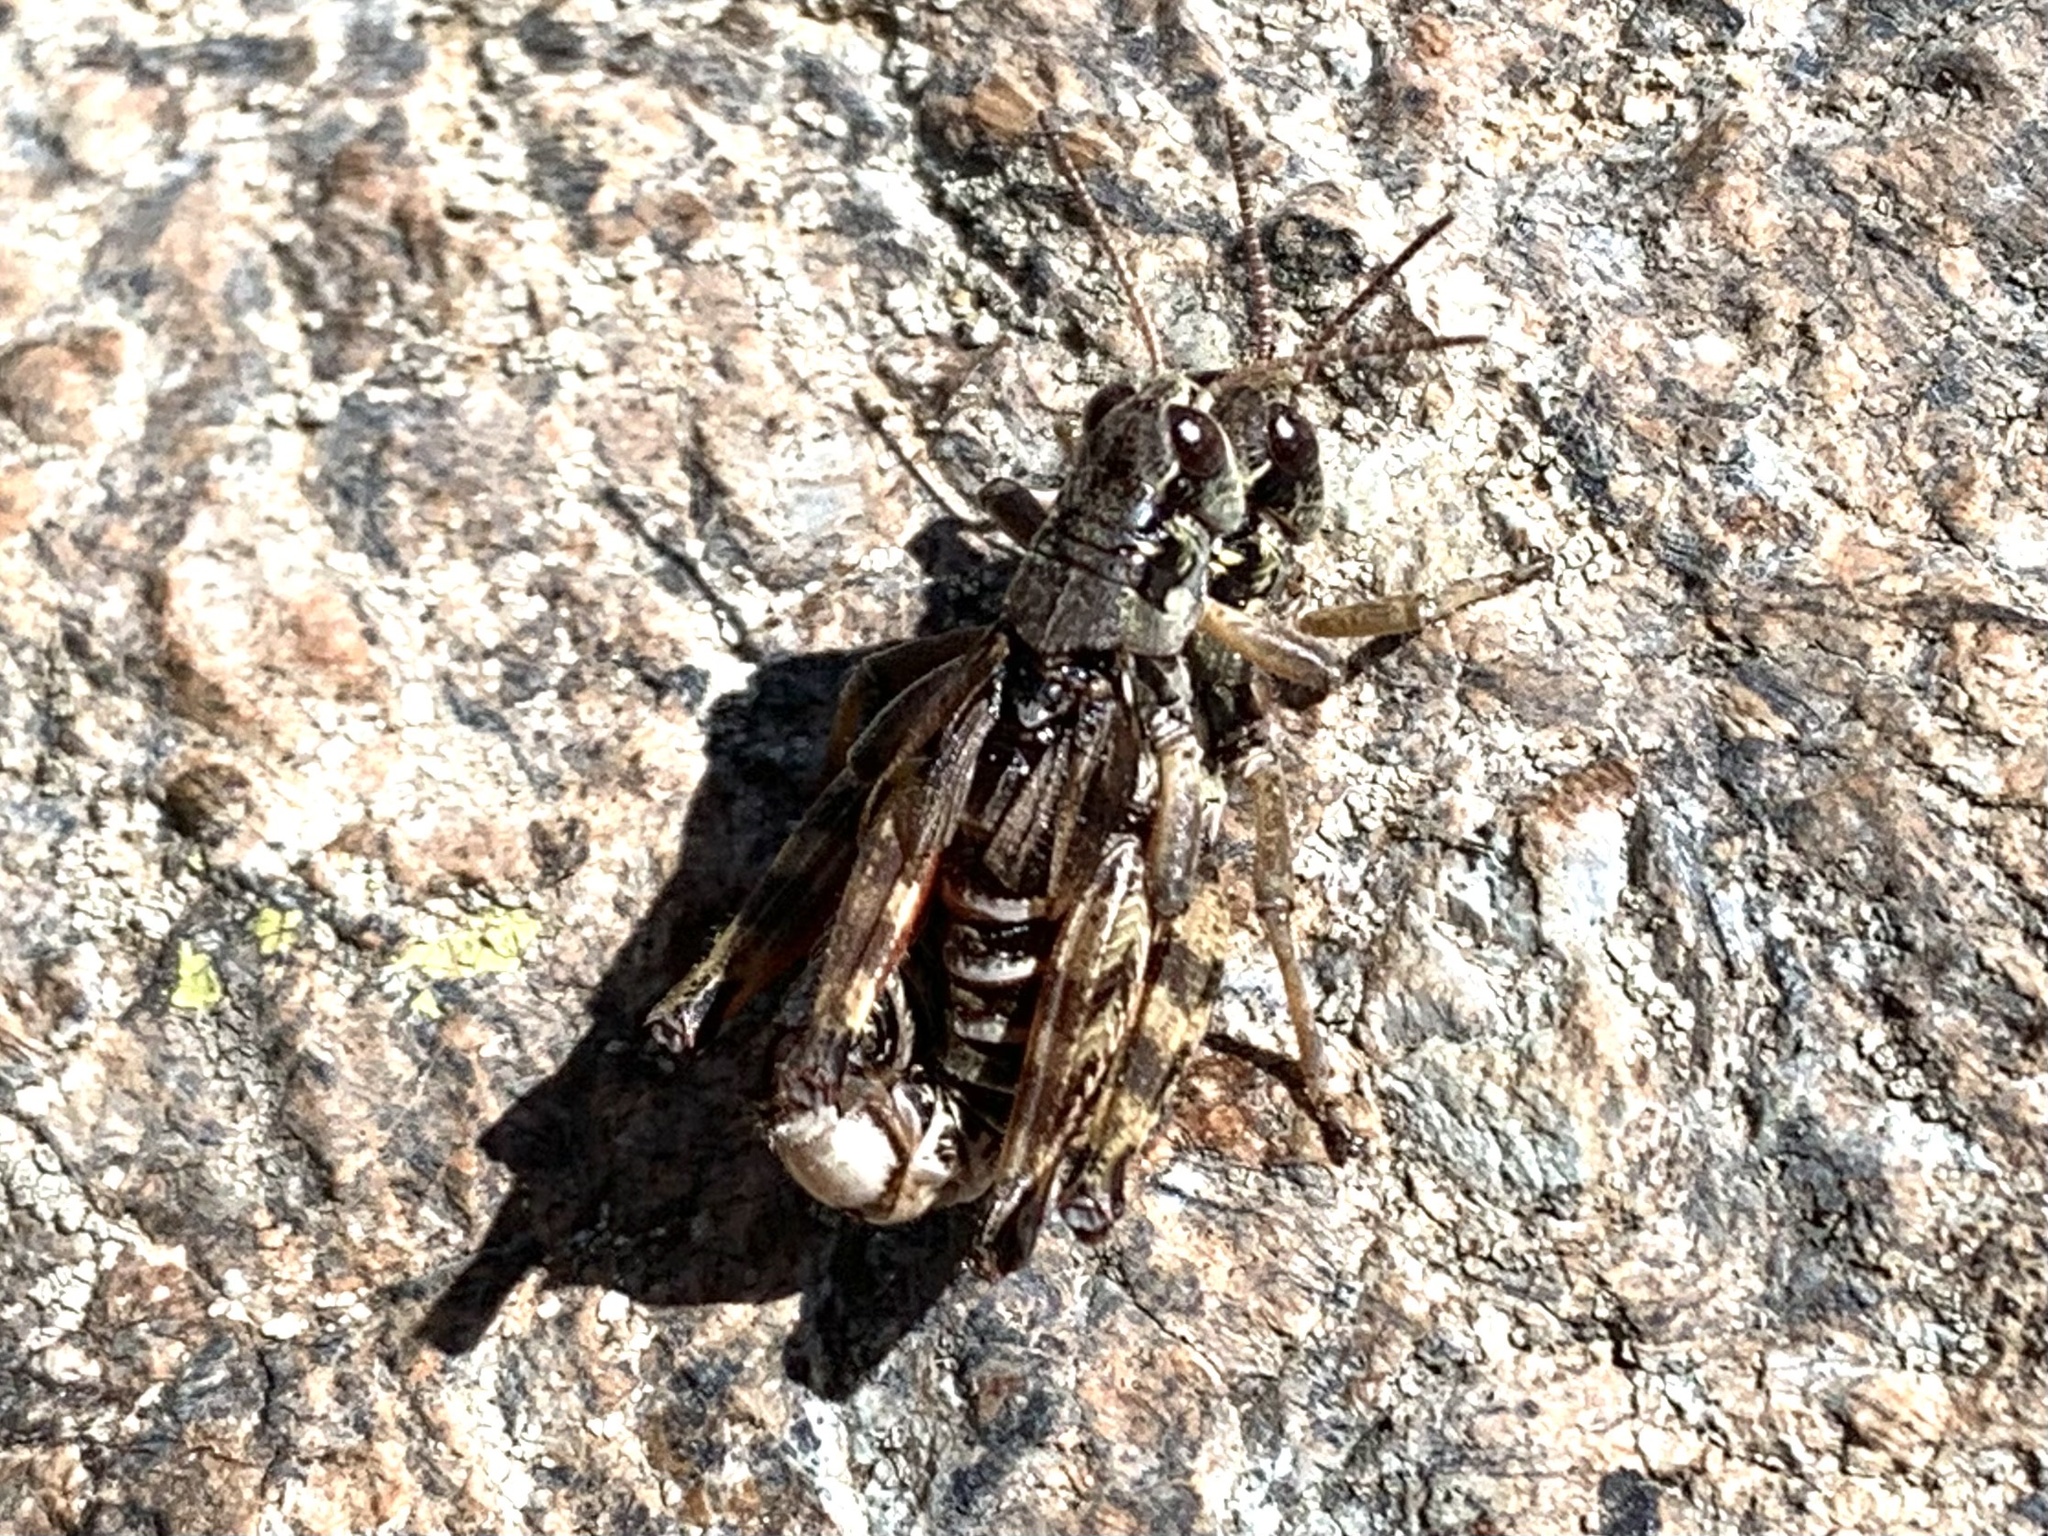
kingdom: Animalia
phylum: Arthropoda
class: Insecta
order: Orthoptera
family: Acrididae
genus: Bohemanella
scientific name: Bohemanella frigida
